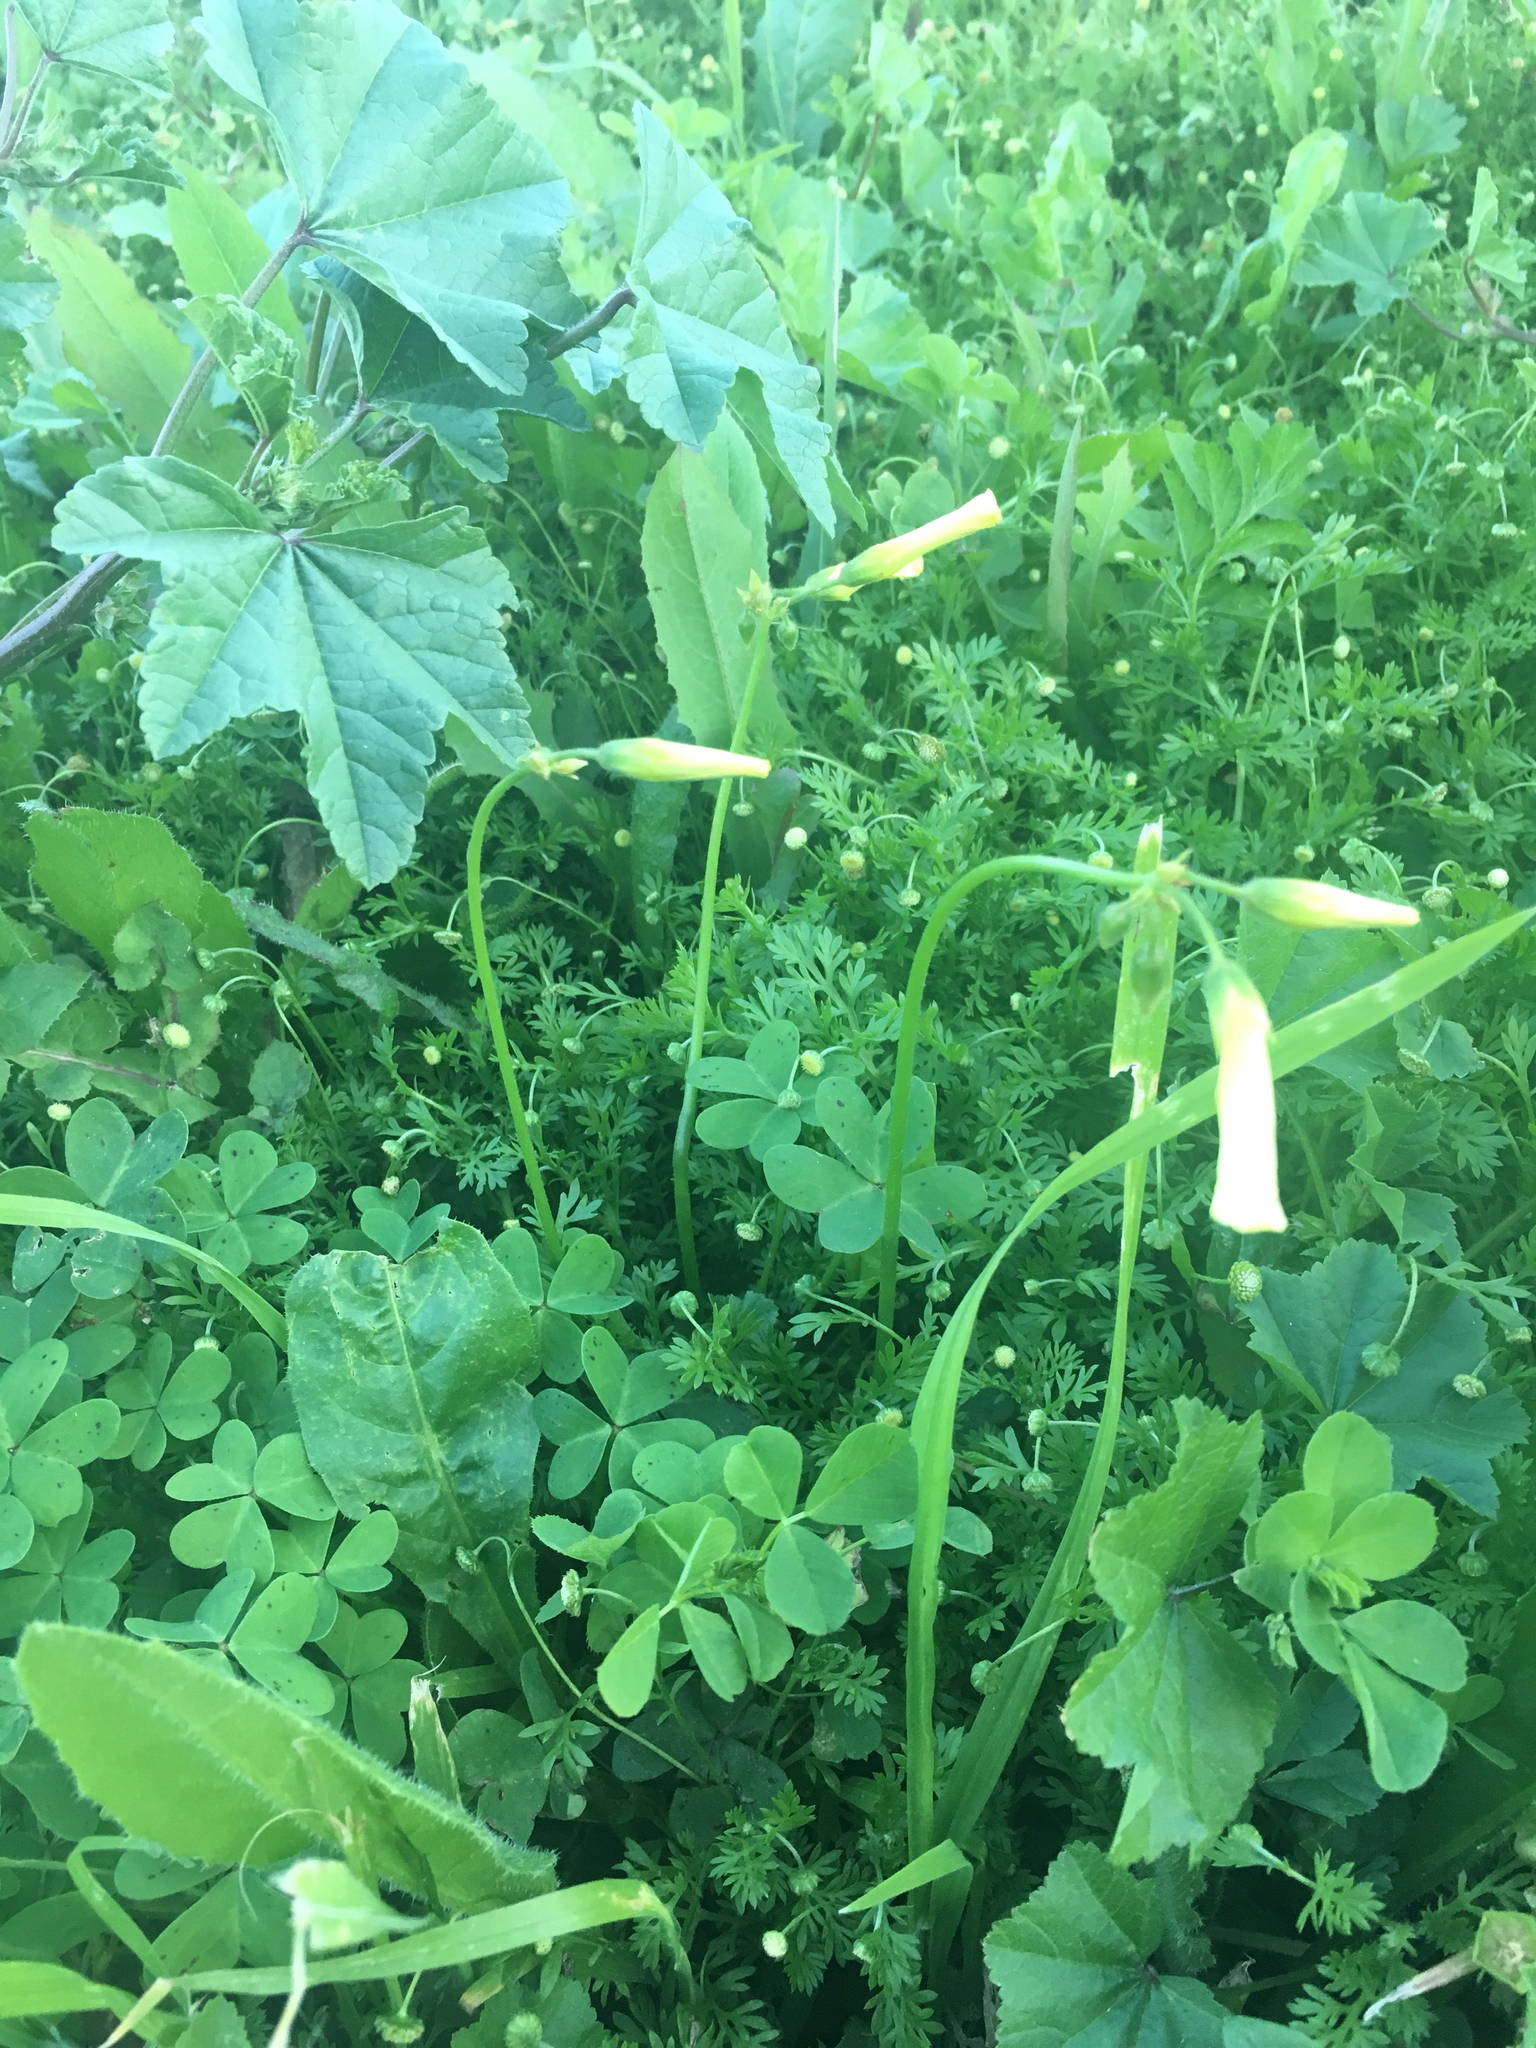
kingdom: Plantae
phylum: Tracheophyta
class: Magnoliopsida
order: Oxalidales
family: Oxalidaceae
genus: Oxalis
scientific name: Oxalis pes-caprae
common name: Bermuda-buttercup
